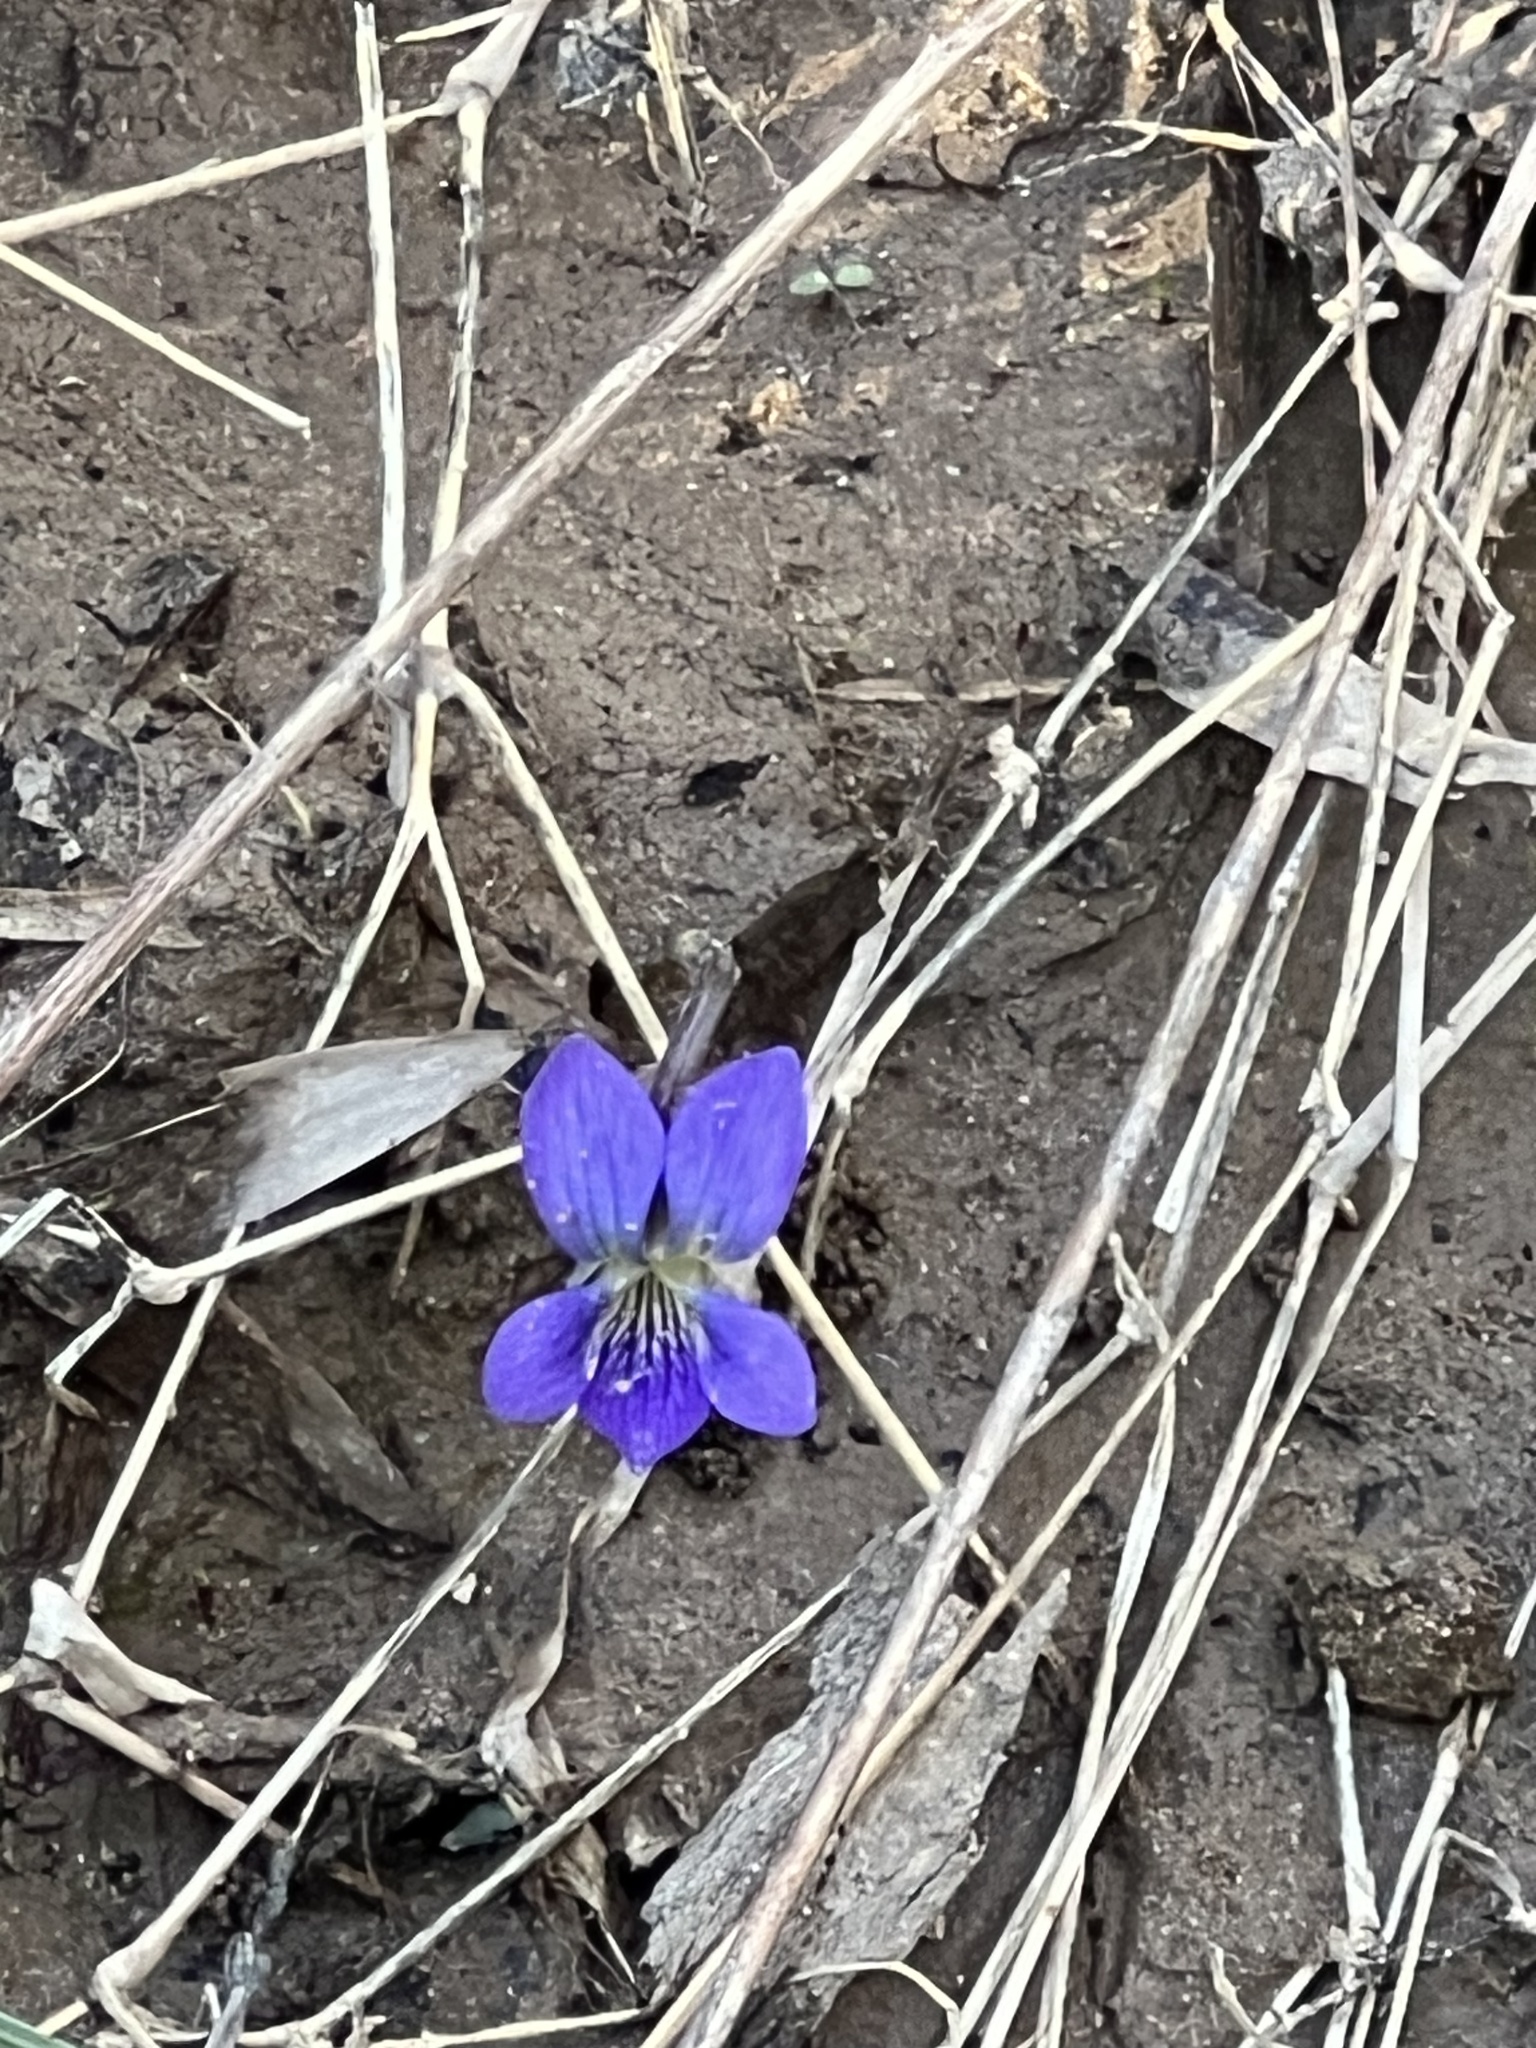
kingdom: Plantae
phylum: Tracheophyta
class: Magnoliopsida
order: Malpighiales
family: Violaceae
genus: Viola
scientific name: Viola sororia
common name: Dooryard violet
